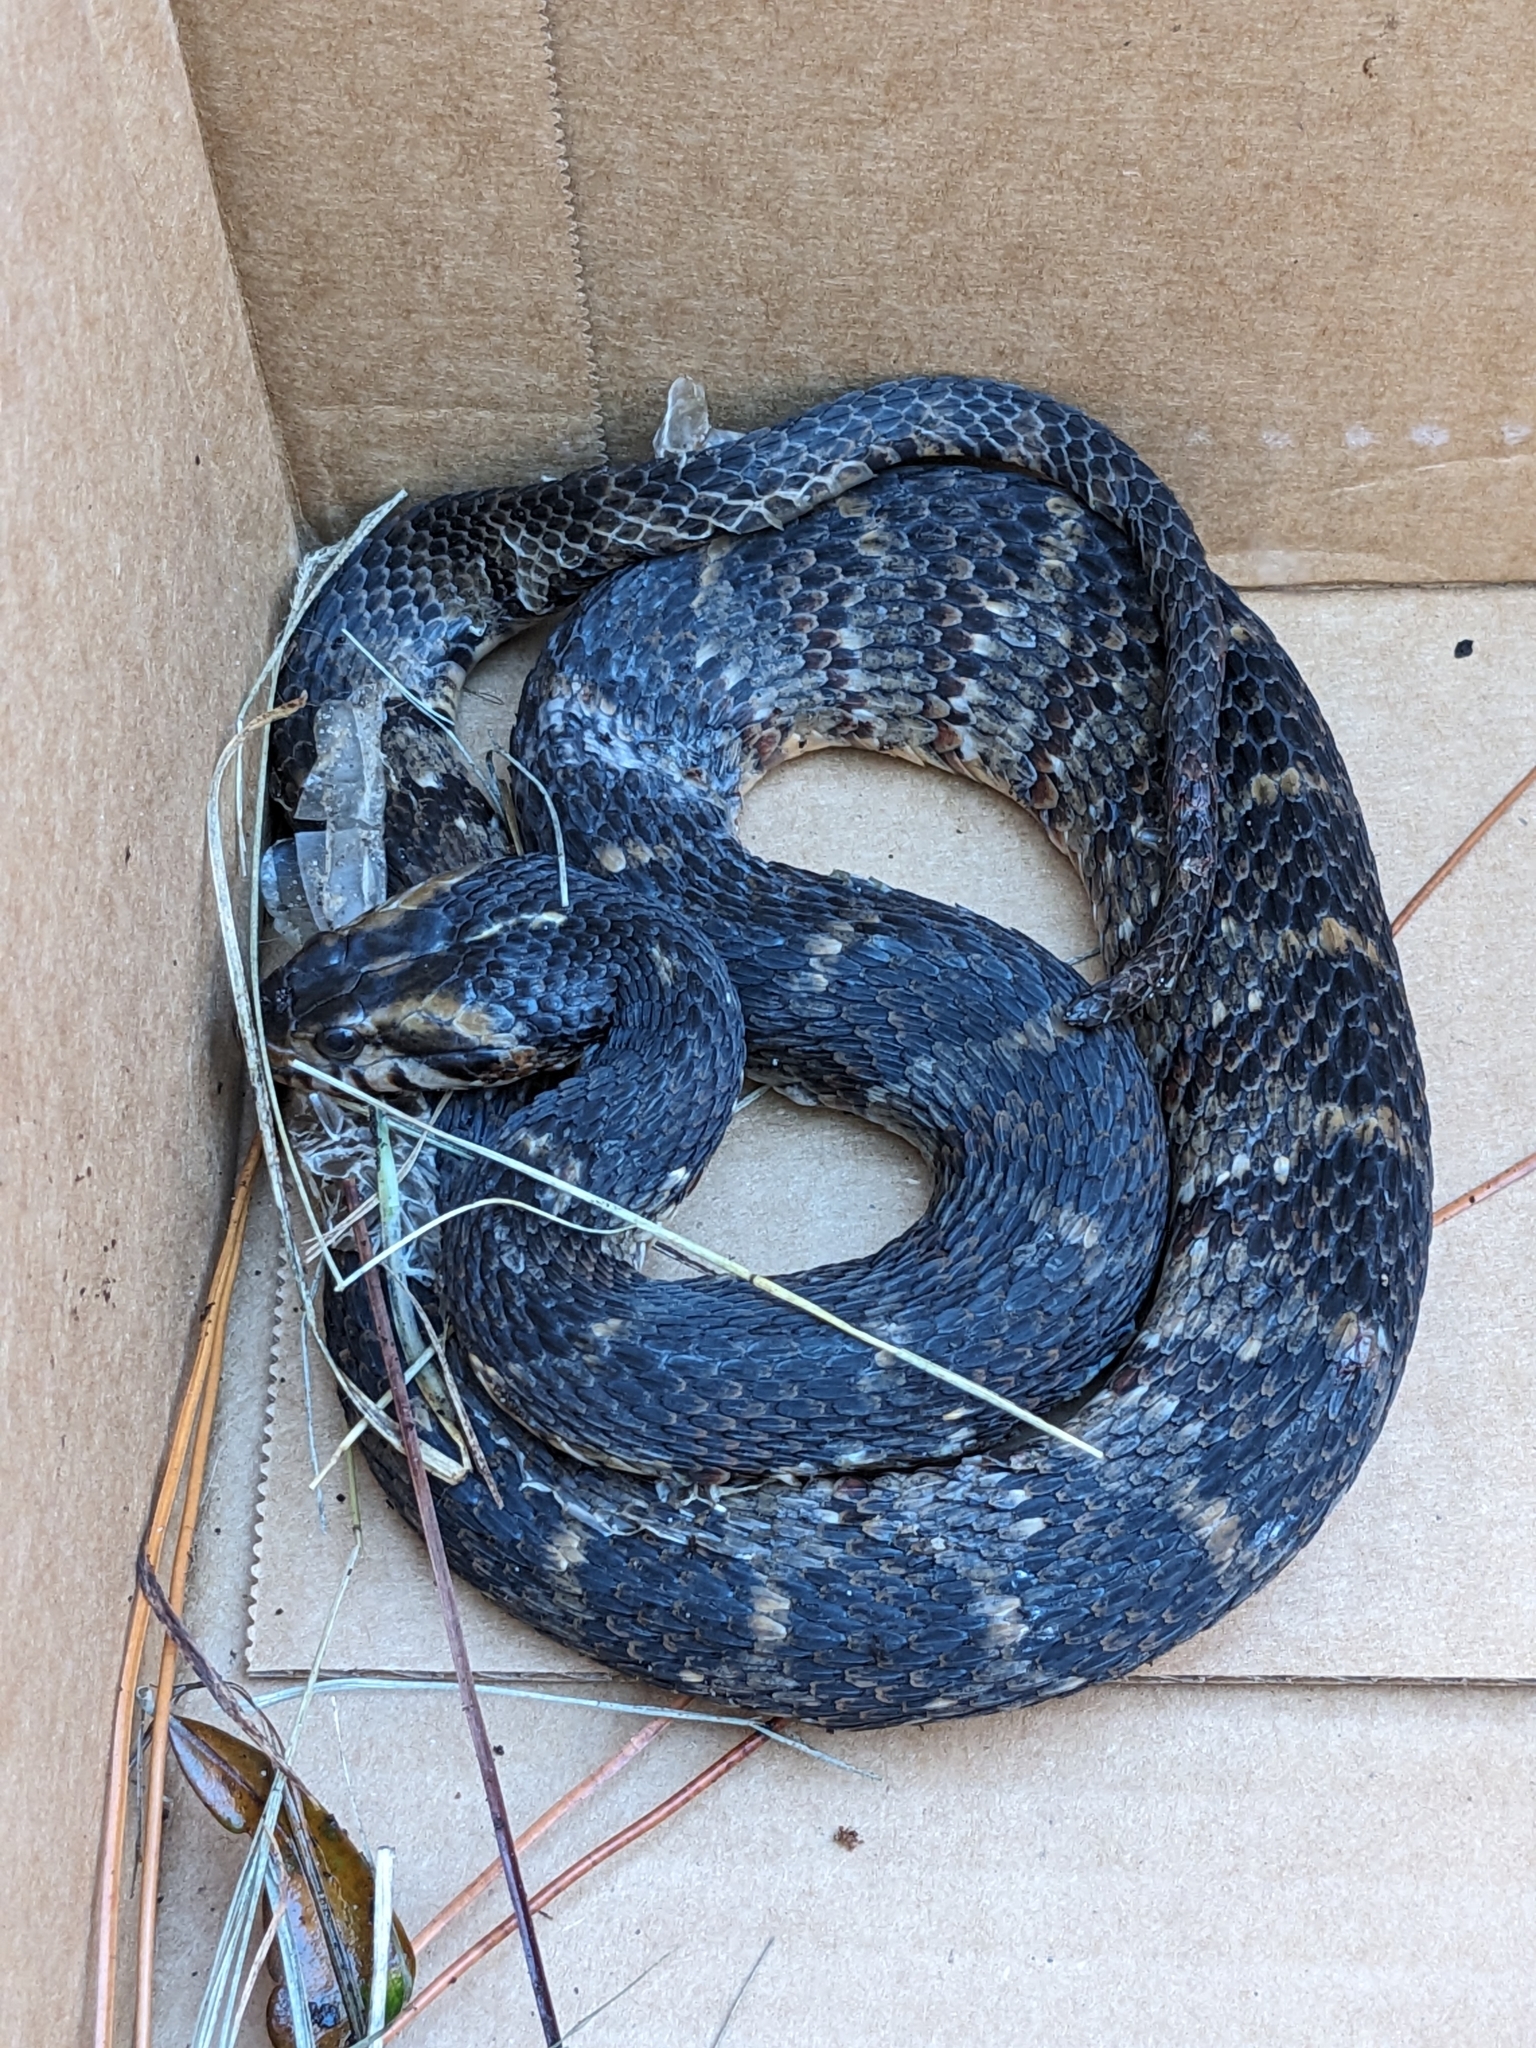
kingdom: Animalia
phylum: Chordata
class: Squamata
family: Colubridae
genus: Nerodia
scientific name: Nerodia fasciata
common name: Southern water snake
